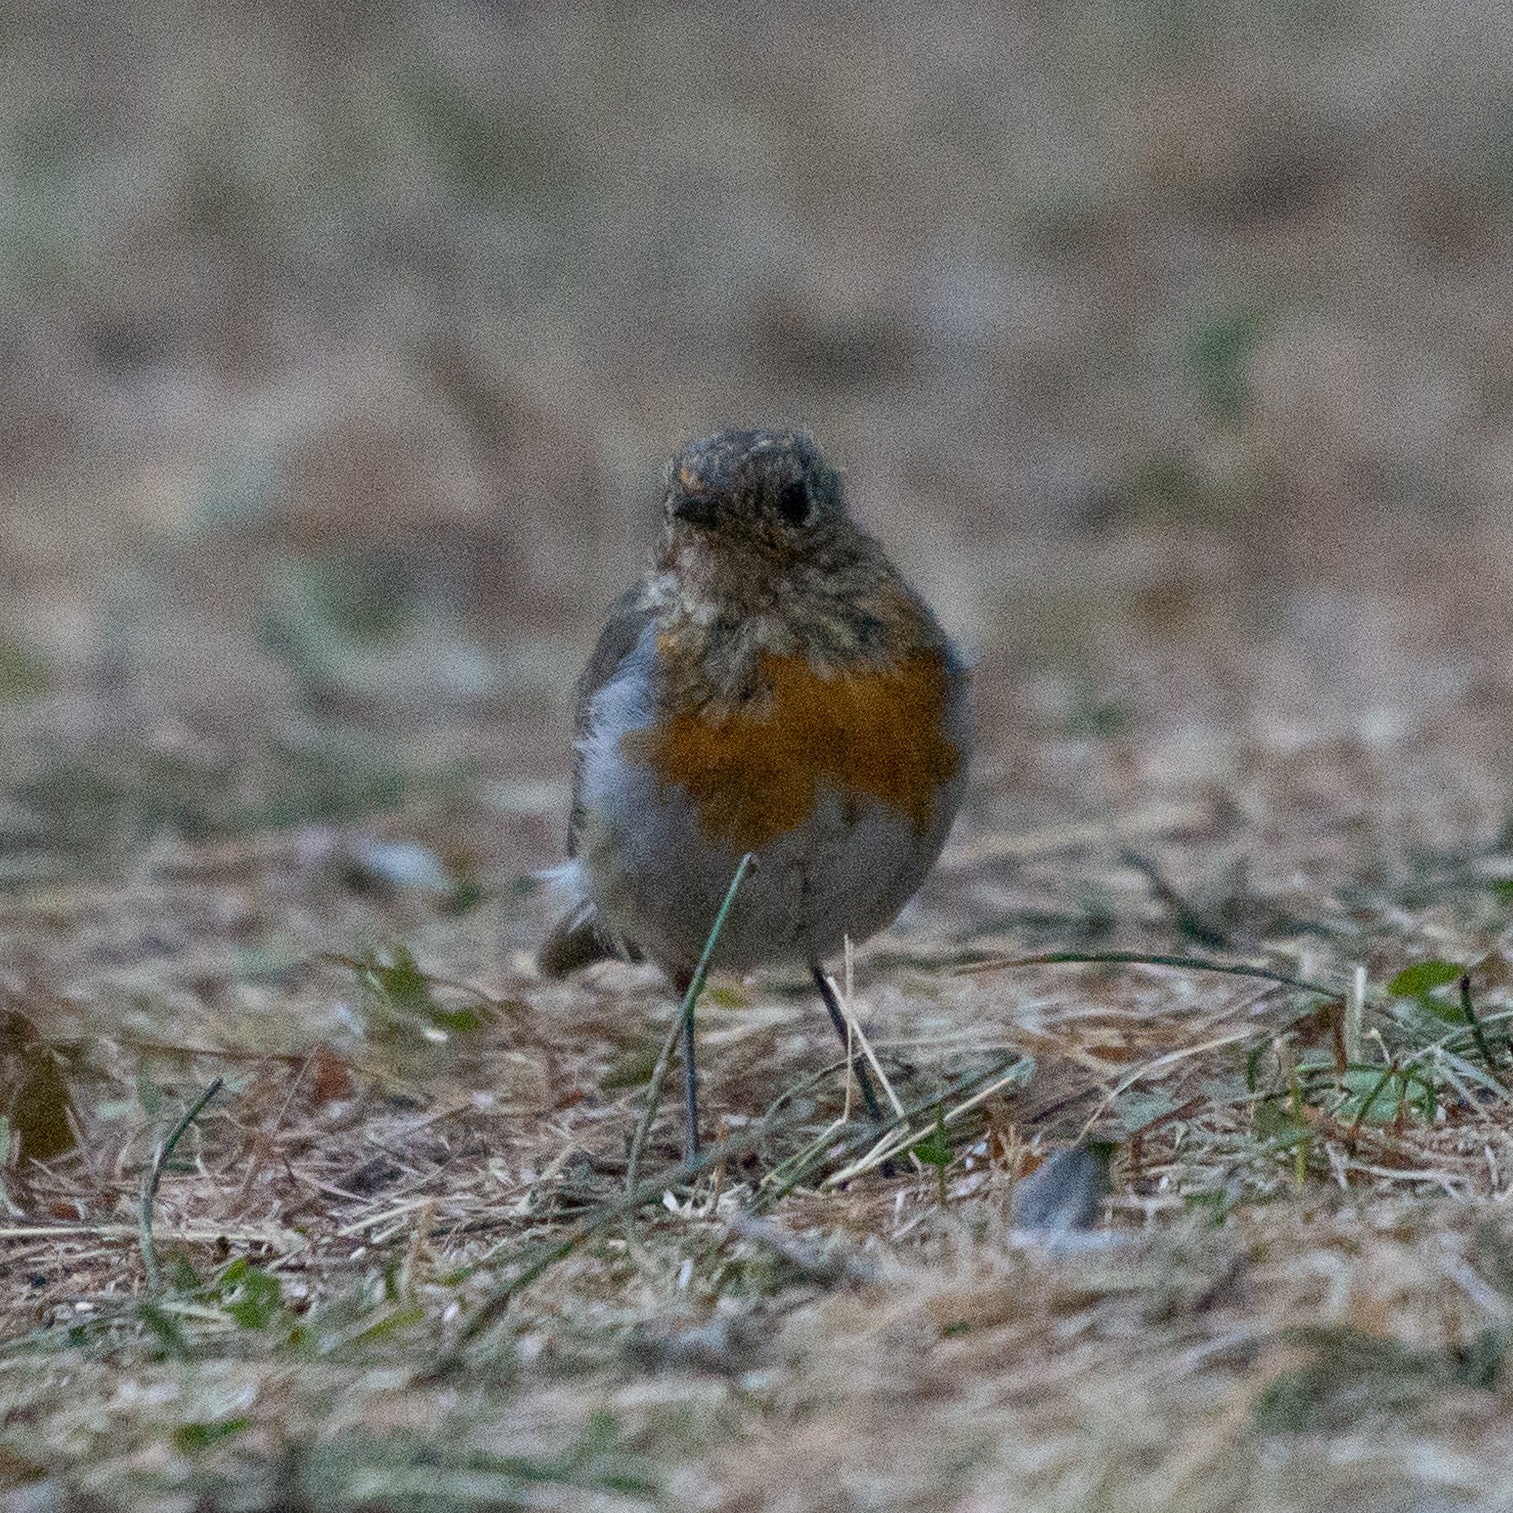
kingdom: Animalia
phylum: Chordata
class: Aves
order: Passeriformes
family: Muscicapidae
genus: Erithacus
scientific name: Erithacus rubecula
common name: European robin
